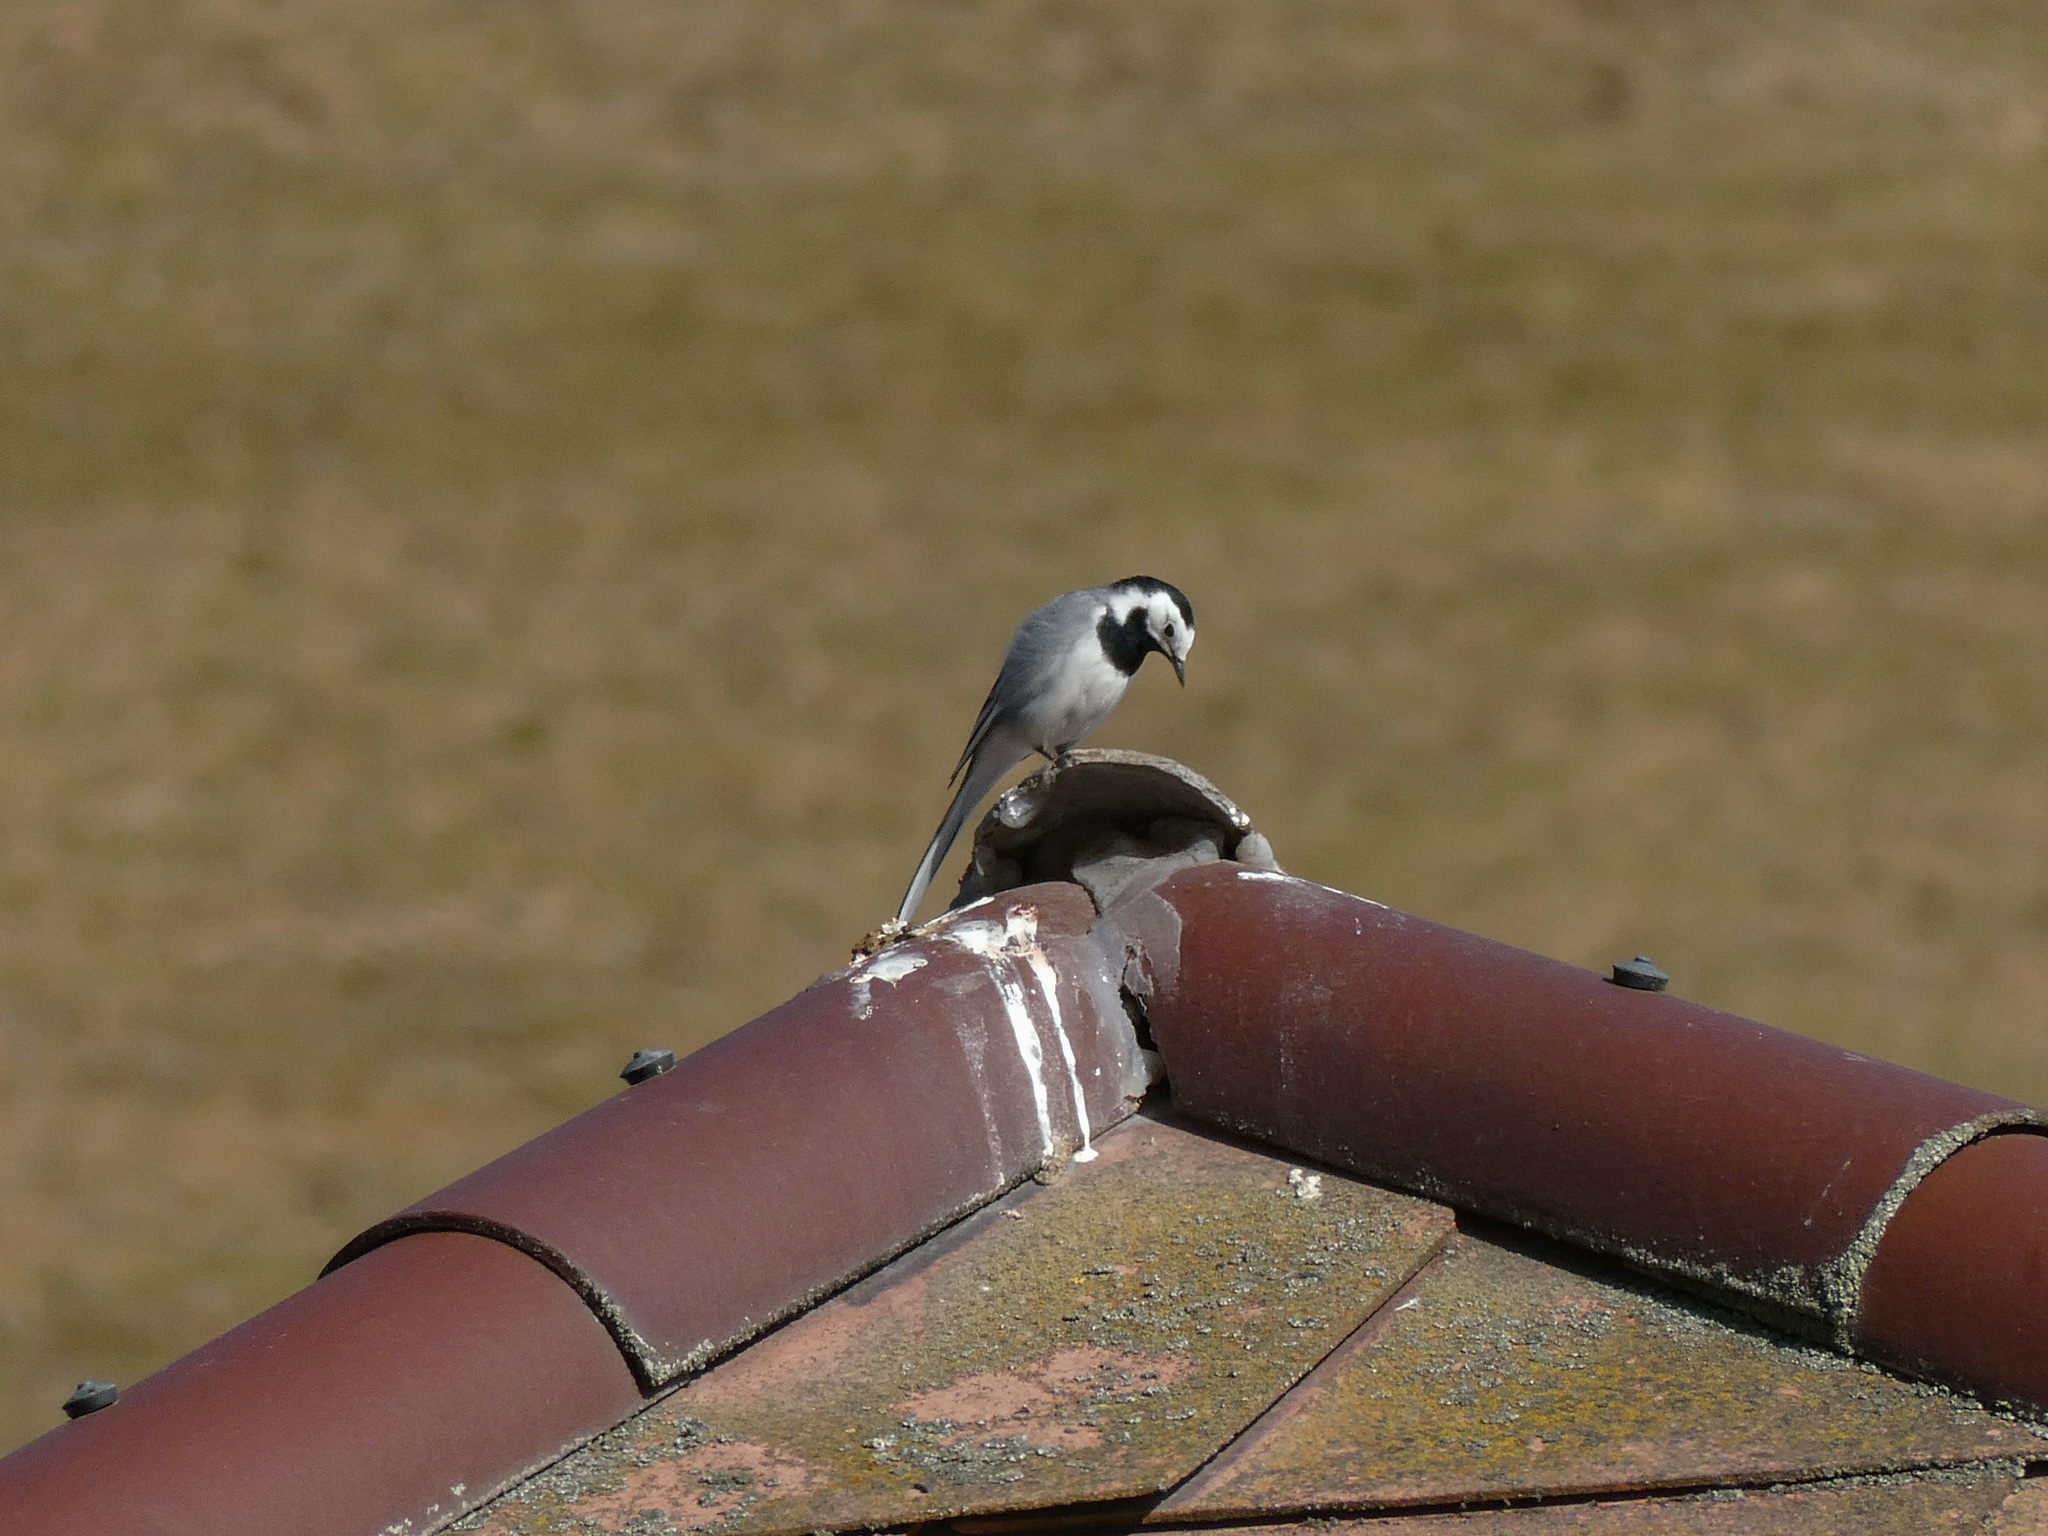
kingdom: Animalia
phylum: Chordata
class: Aves
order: Passeriformes
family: Motacillidae
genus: Motacilla
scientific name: Motacilla alba
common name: White wagtail
